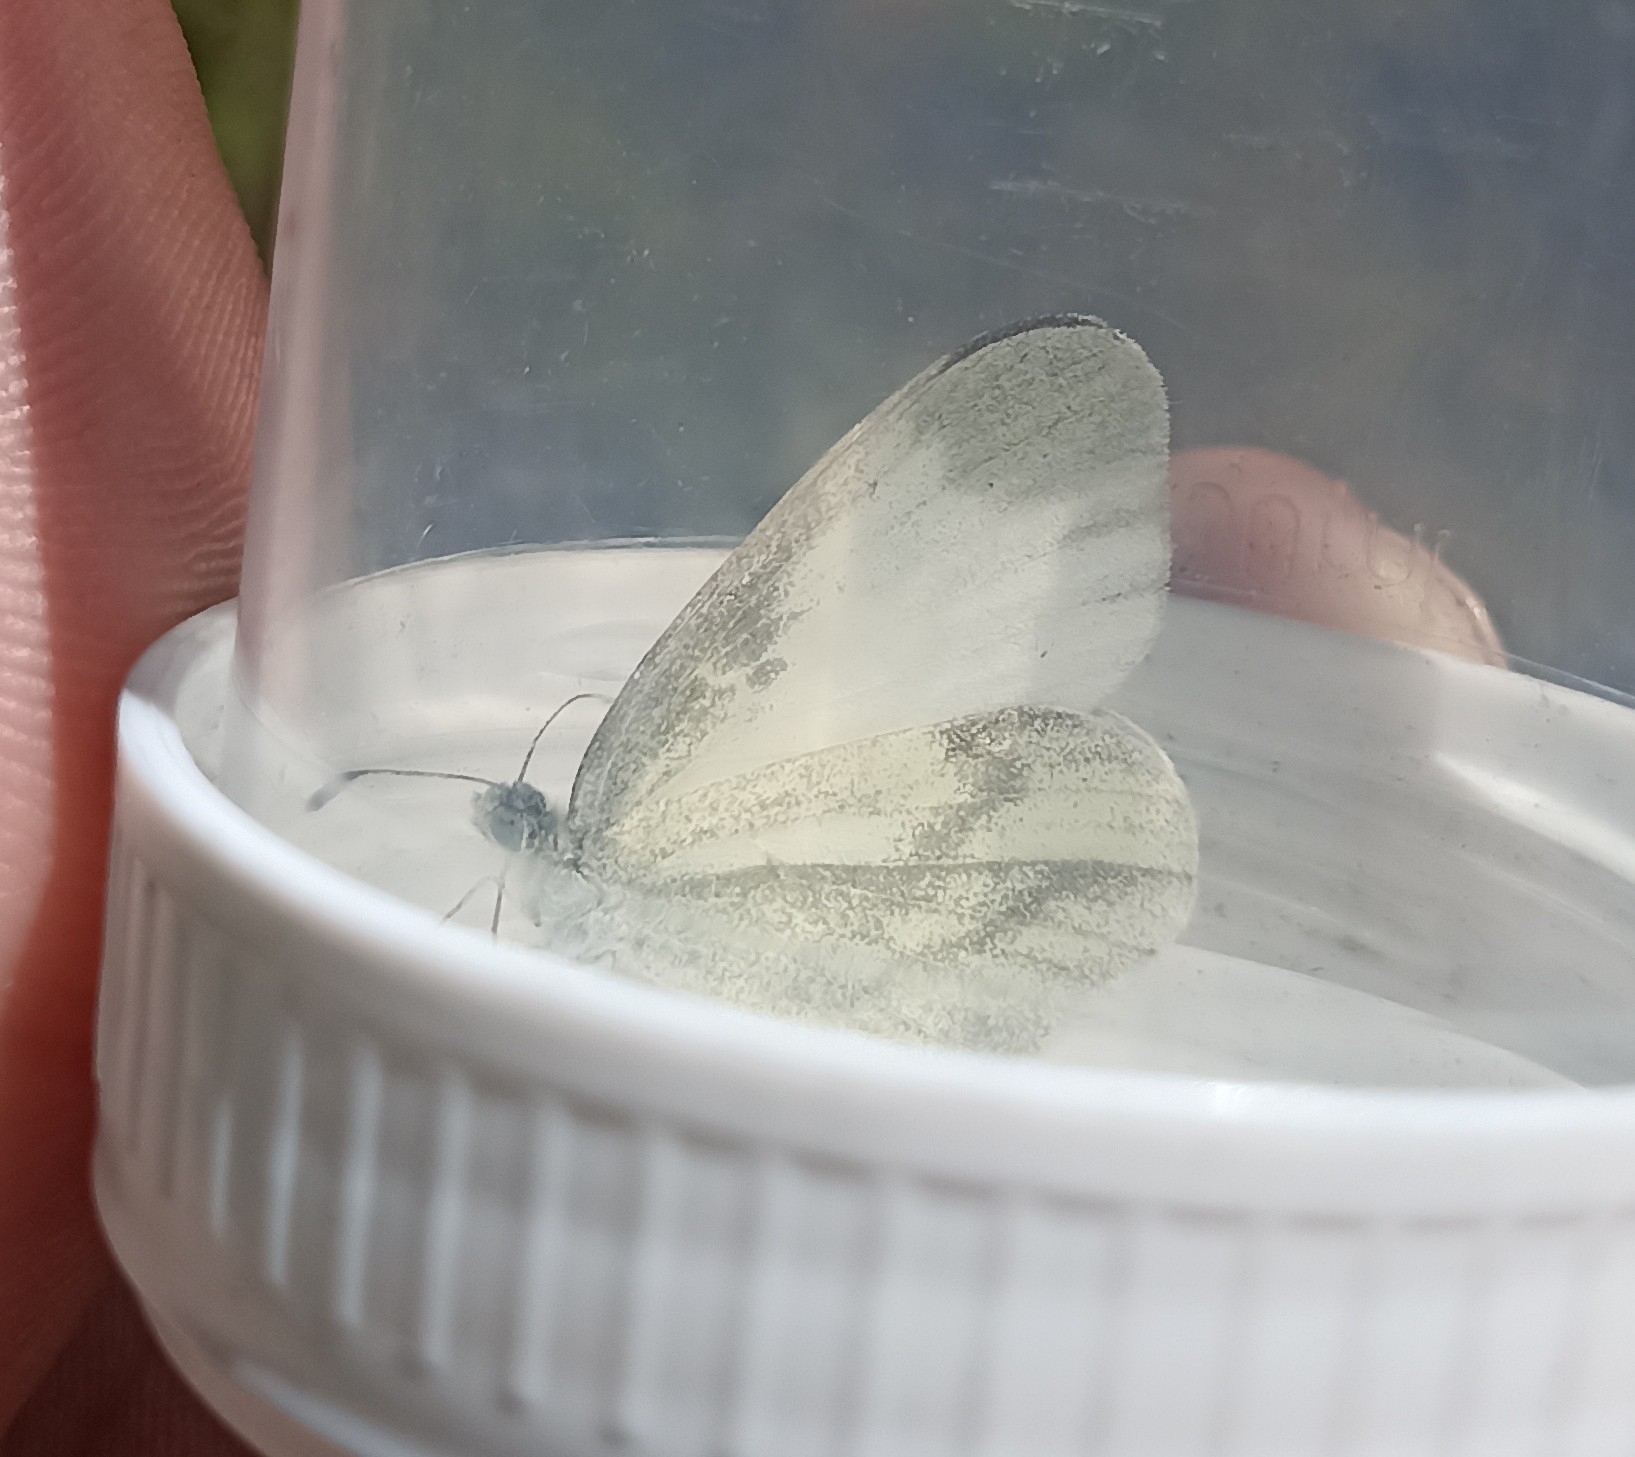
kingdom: Animalia
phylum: Arthropoda
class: Insecta
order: Lepidoptera
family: Pieridae
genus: Leptidea
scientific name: Leptidea sinapis
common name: Wood white
